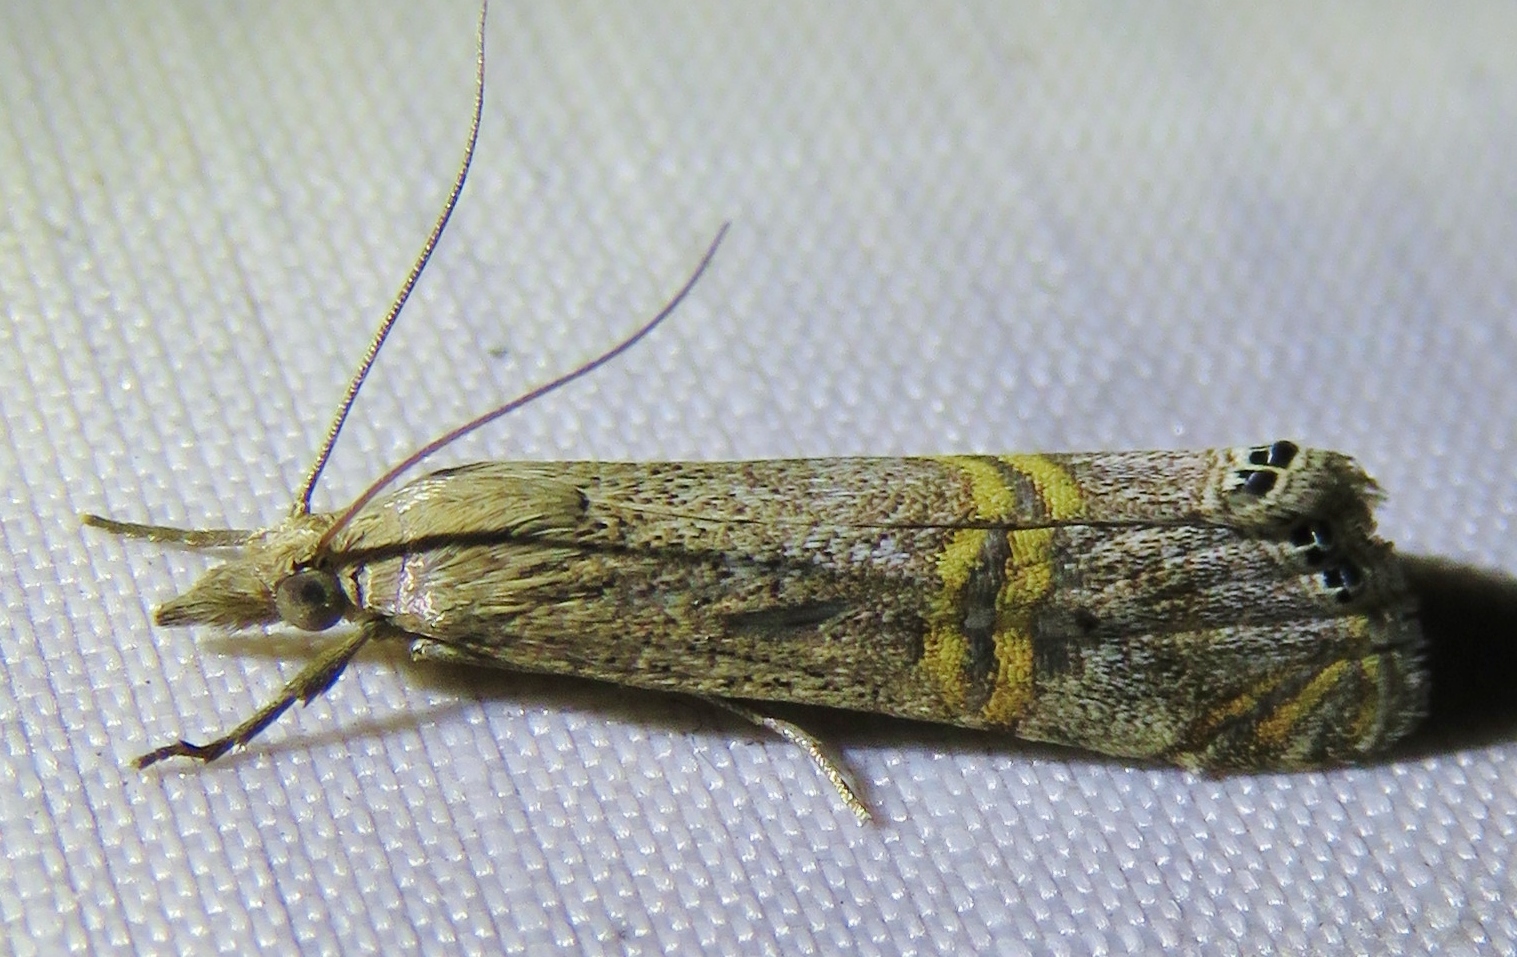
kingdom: Animalia
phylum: Arthropoda
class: Insecta
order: Lepidoptera
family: Crambidae
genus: Euchromius
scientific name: Euchromius ocellea
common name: Necklace veneer moth
